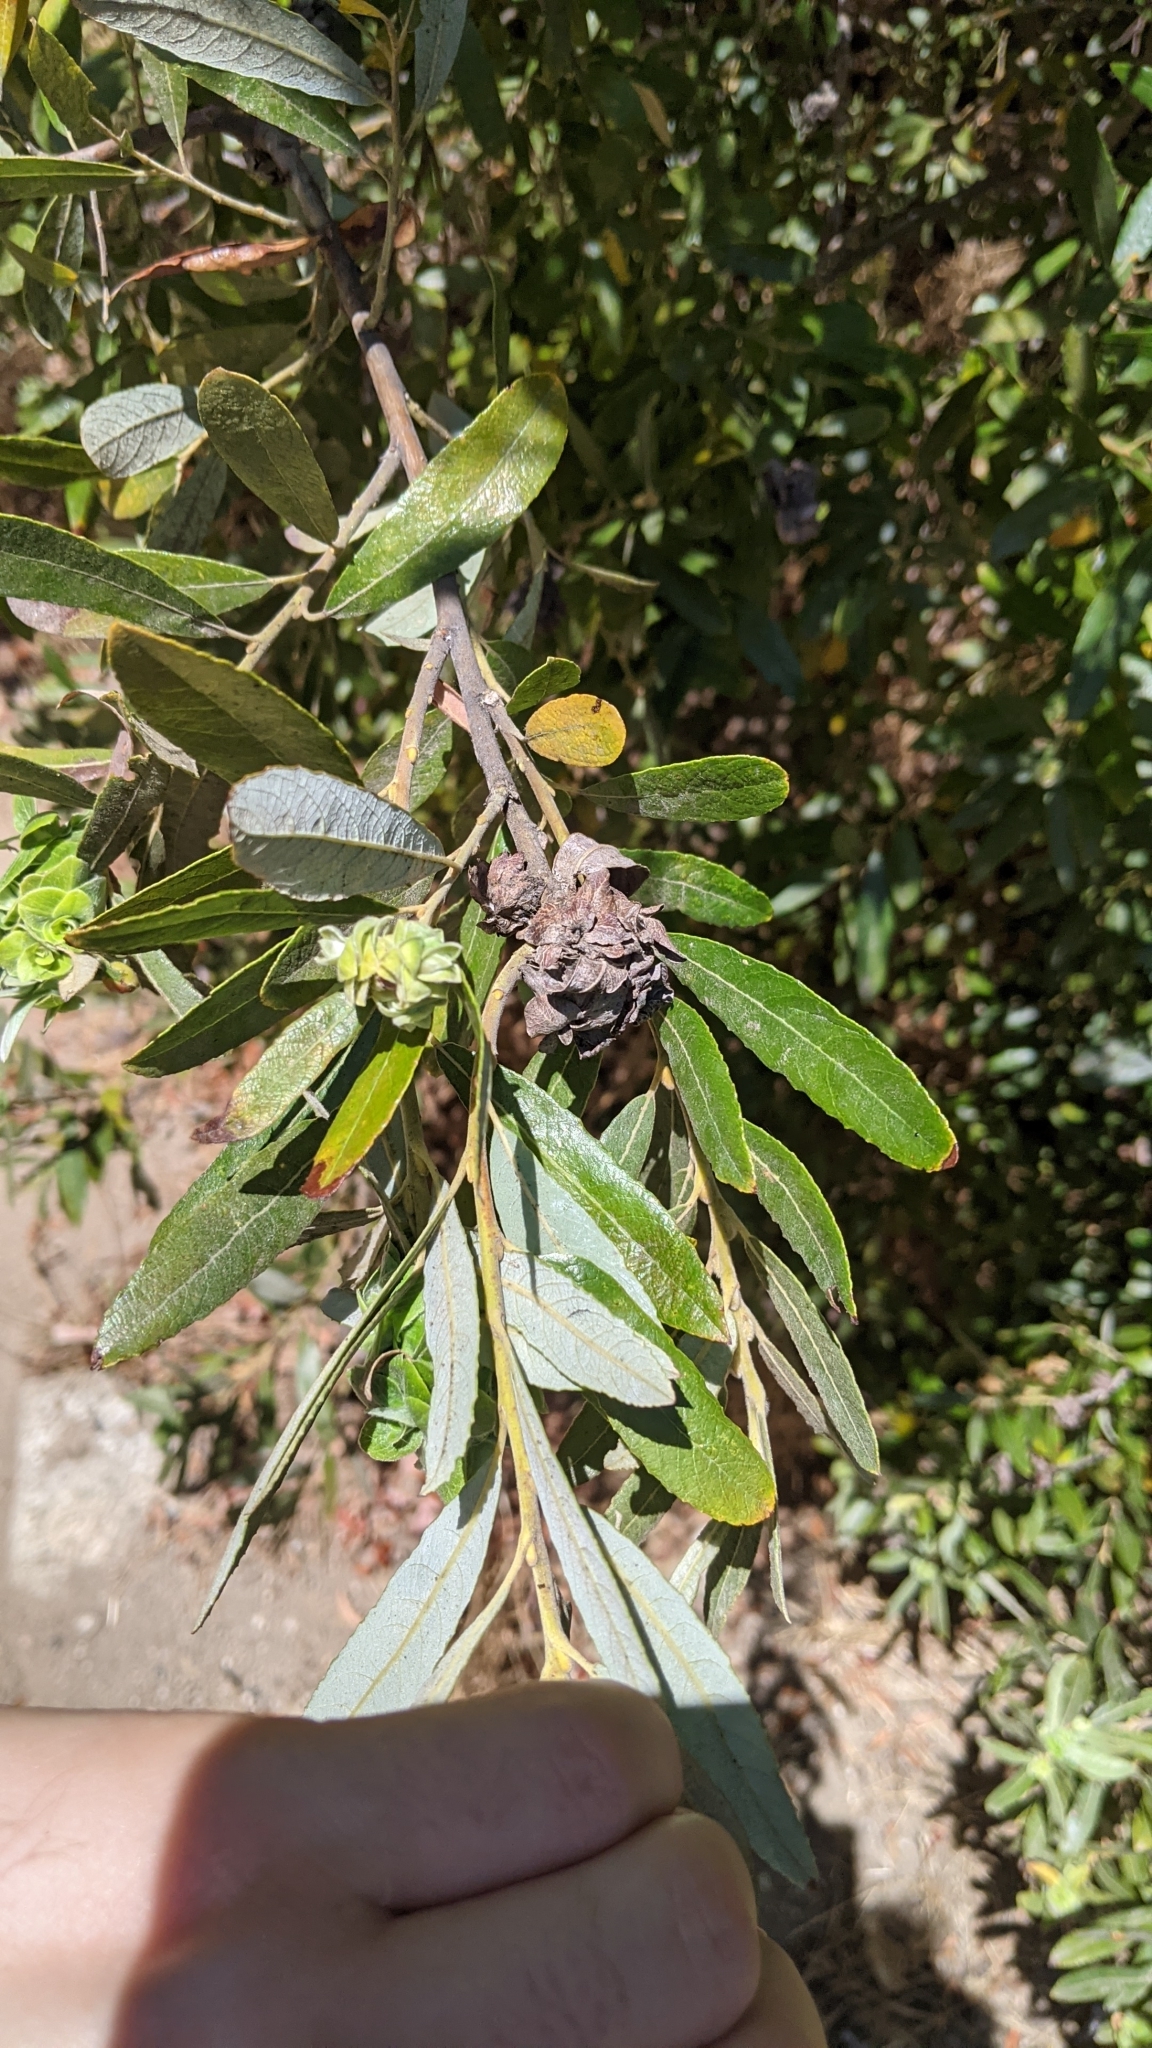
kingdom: Plantae
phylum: Tracheophyta
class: Magnoliopsida
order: Malpighiales
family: Salicaceae
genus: Salix
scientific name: Salix lasiolepis
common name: Arroyo willow
